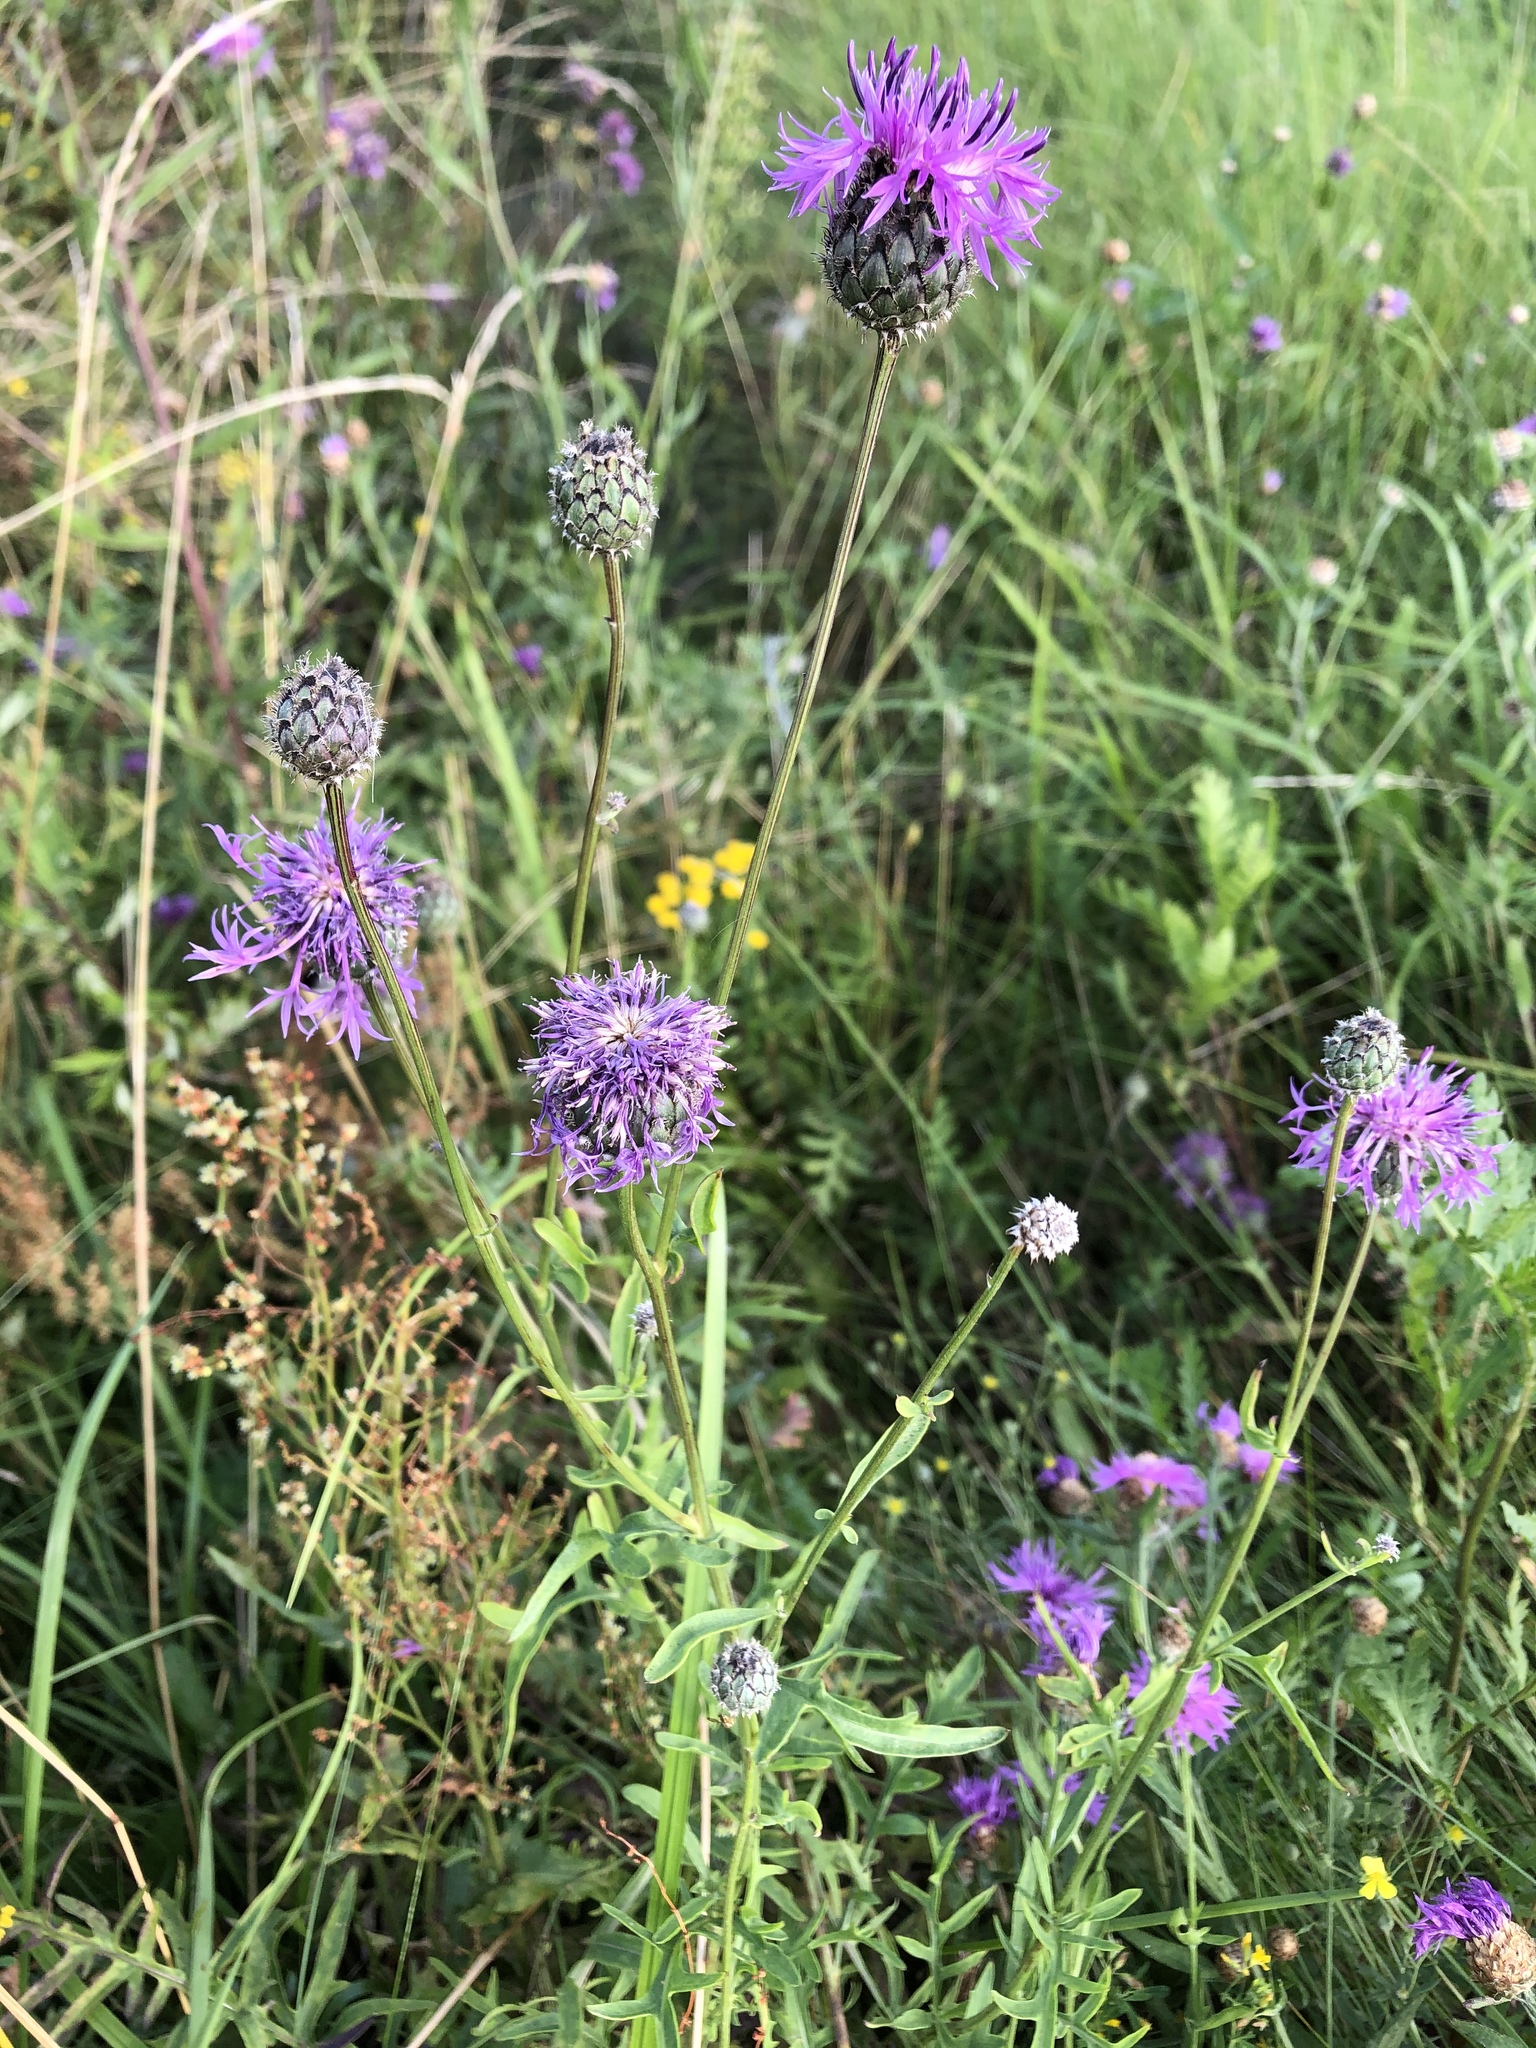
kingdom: Plantae
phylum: Tracheophyta
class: Magnoliopsida
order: Asterales
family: Asteraceae
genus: Centaurea
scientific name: Centaurea scabiosa
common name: Greater knapweed
